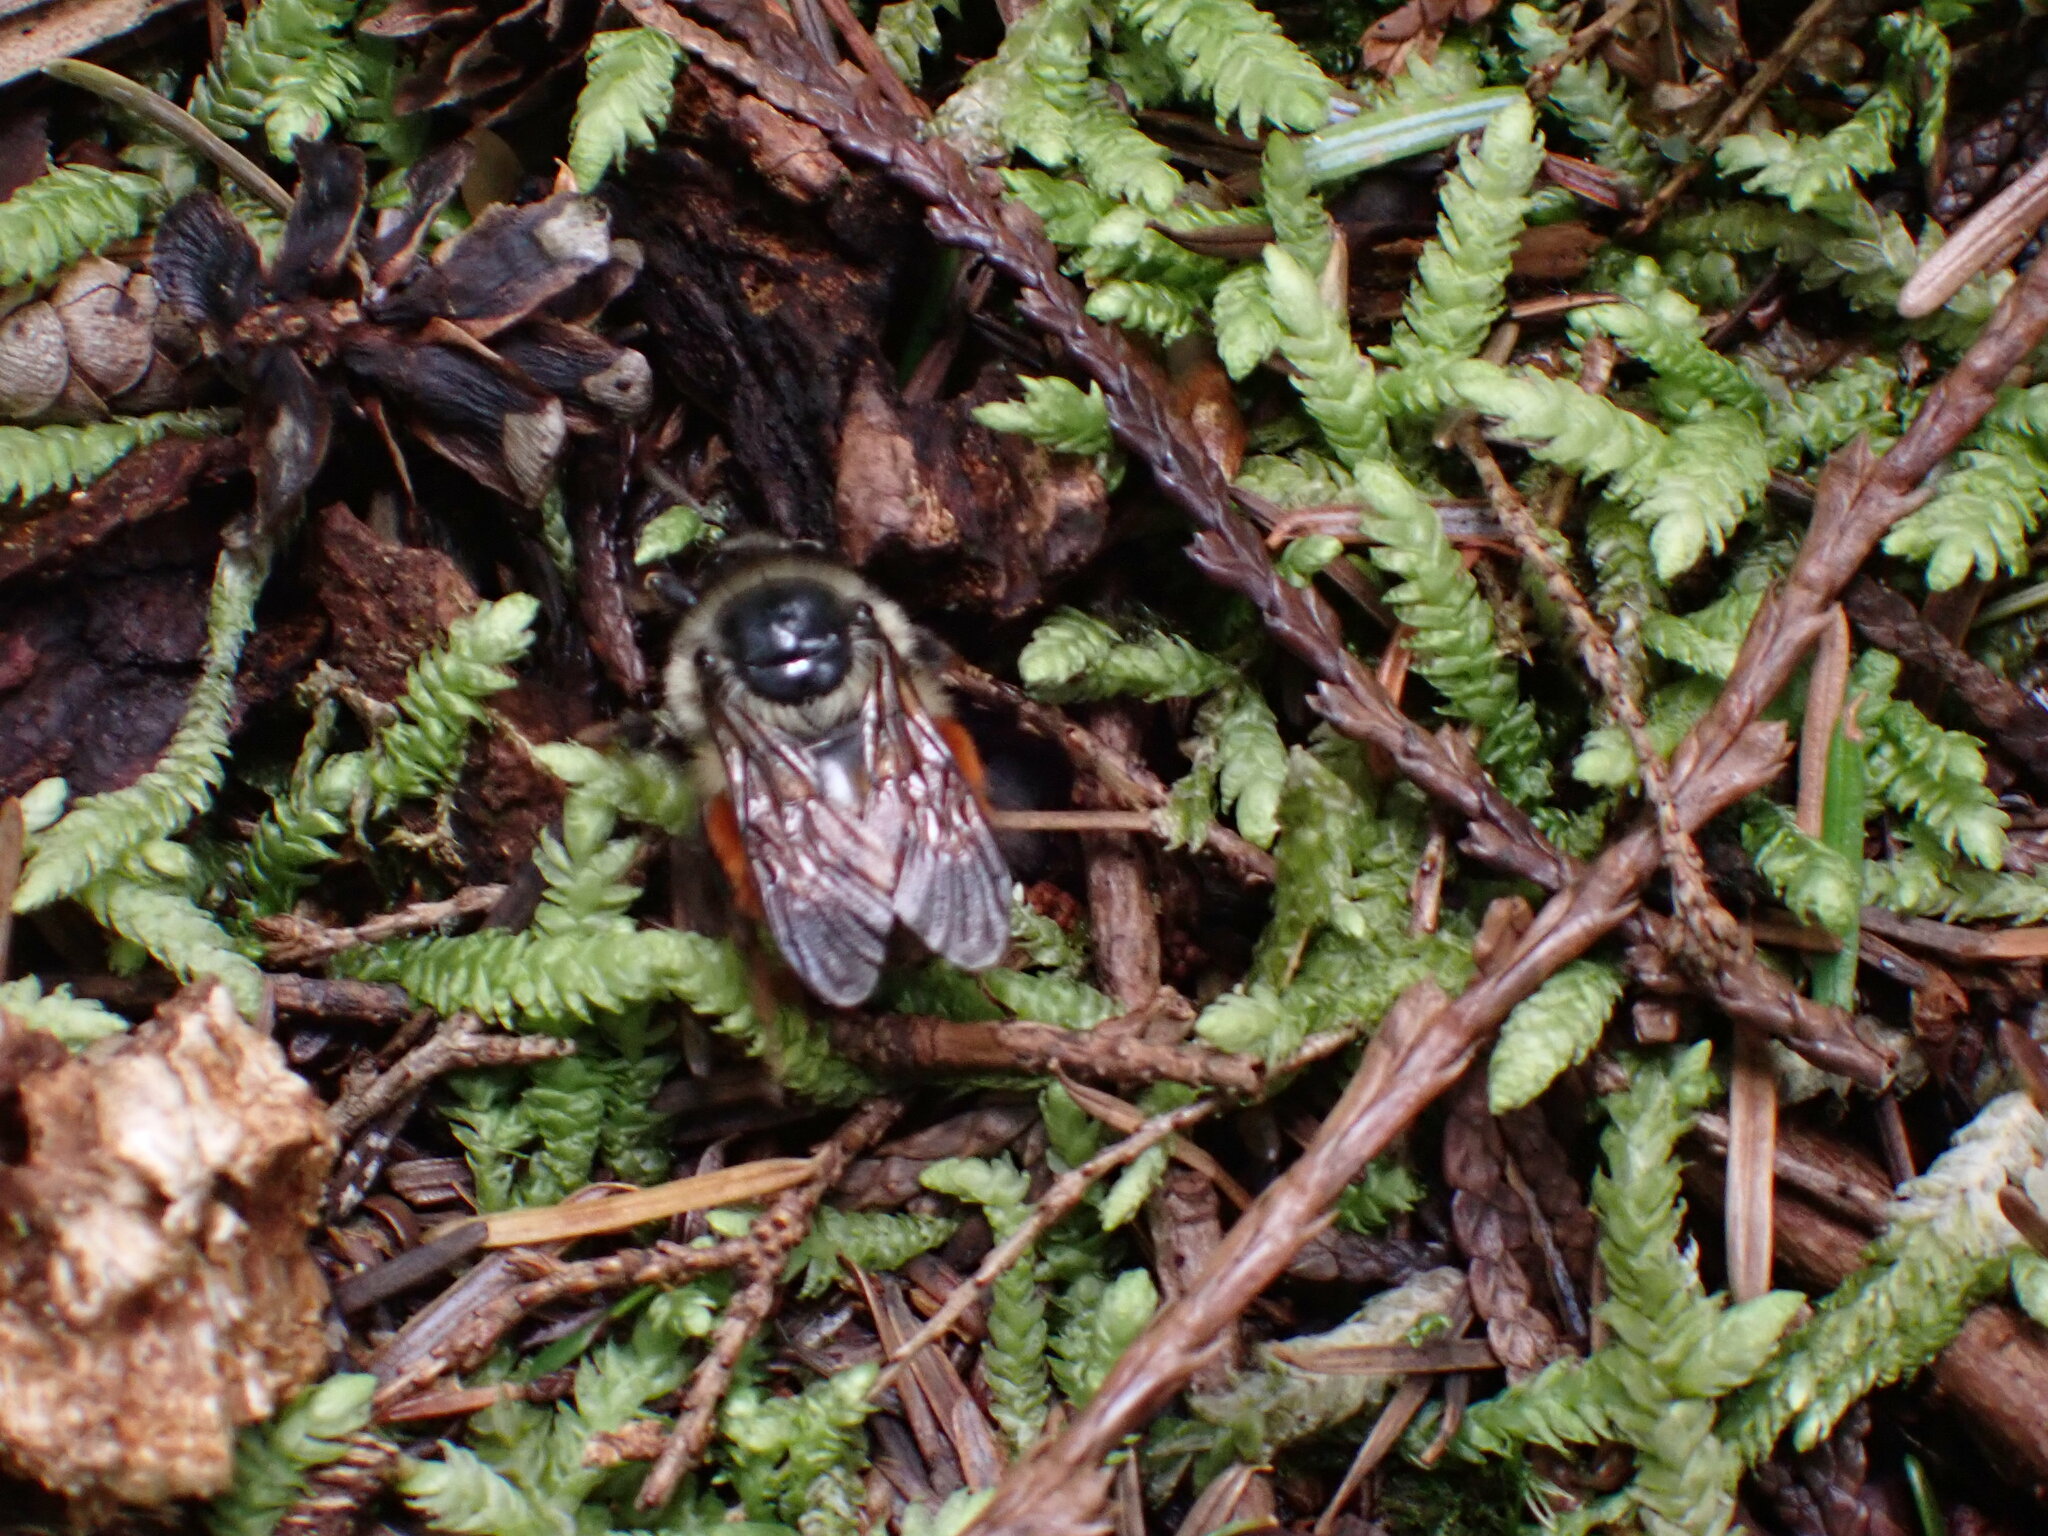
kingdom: Animalia
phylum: Arthropoda
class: Insecta
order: Hymenoptera
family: Apidae
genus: Bombus
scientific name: Bombus melanopygus
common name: Black tail bumble bee
